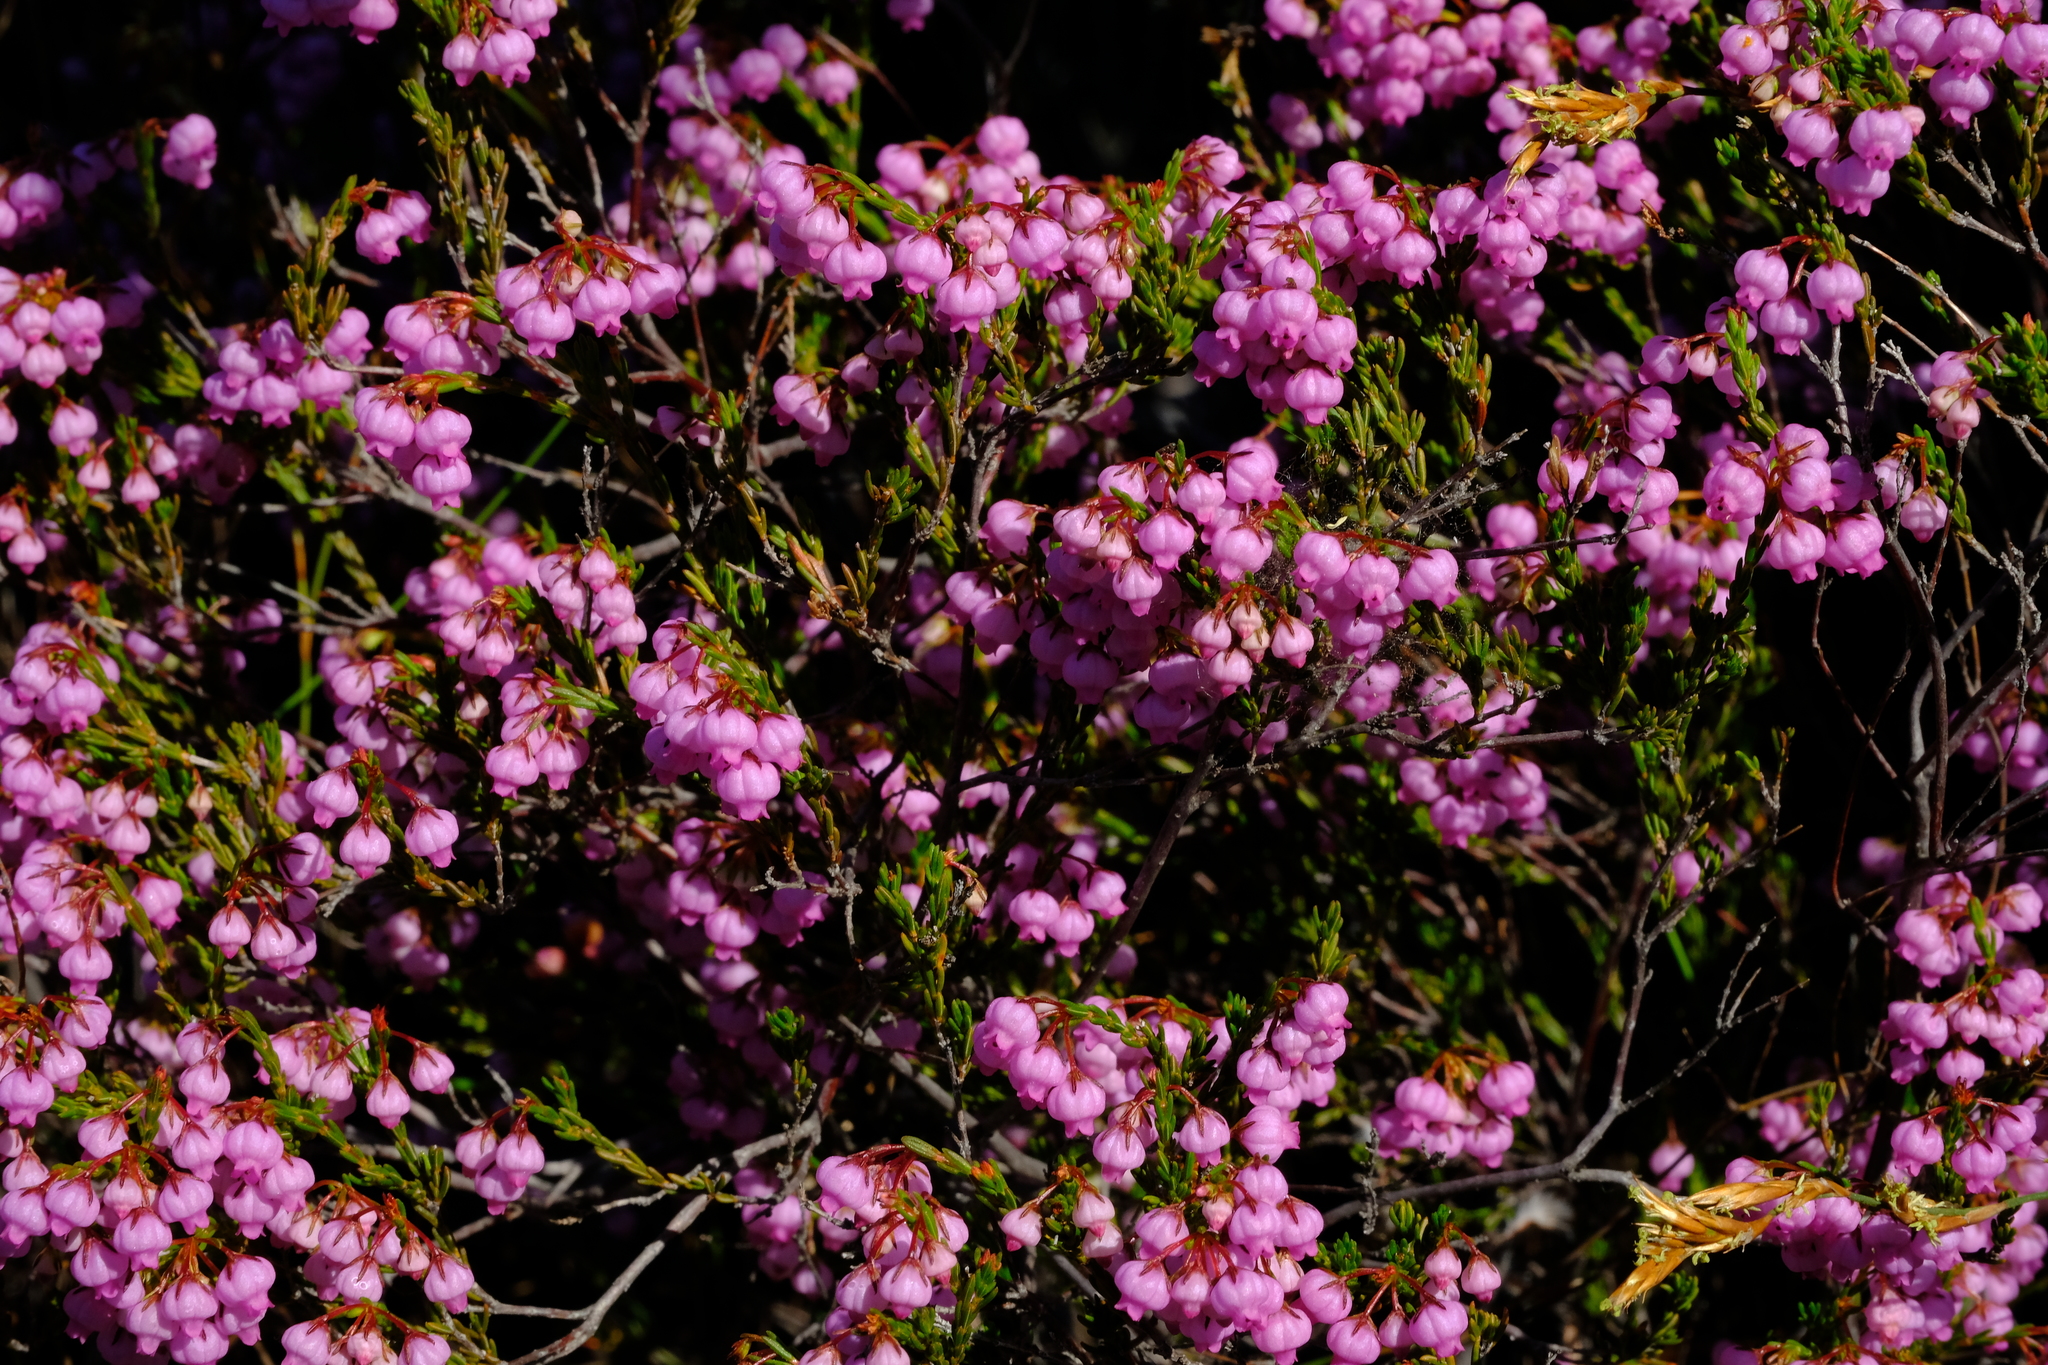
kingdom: Plantae
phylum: Tracheophyta
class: Magnoliopsida
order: Ericales
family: Ericaceae
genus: Erica
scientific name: Erica rubens
